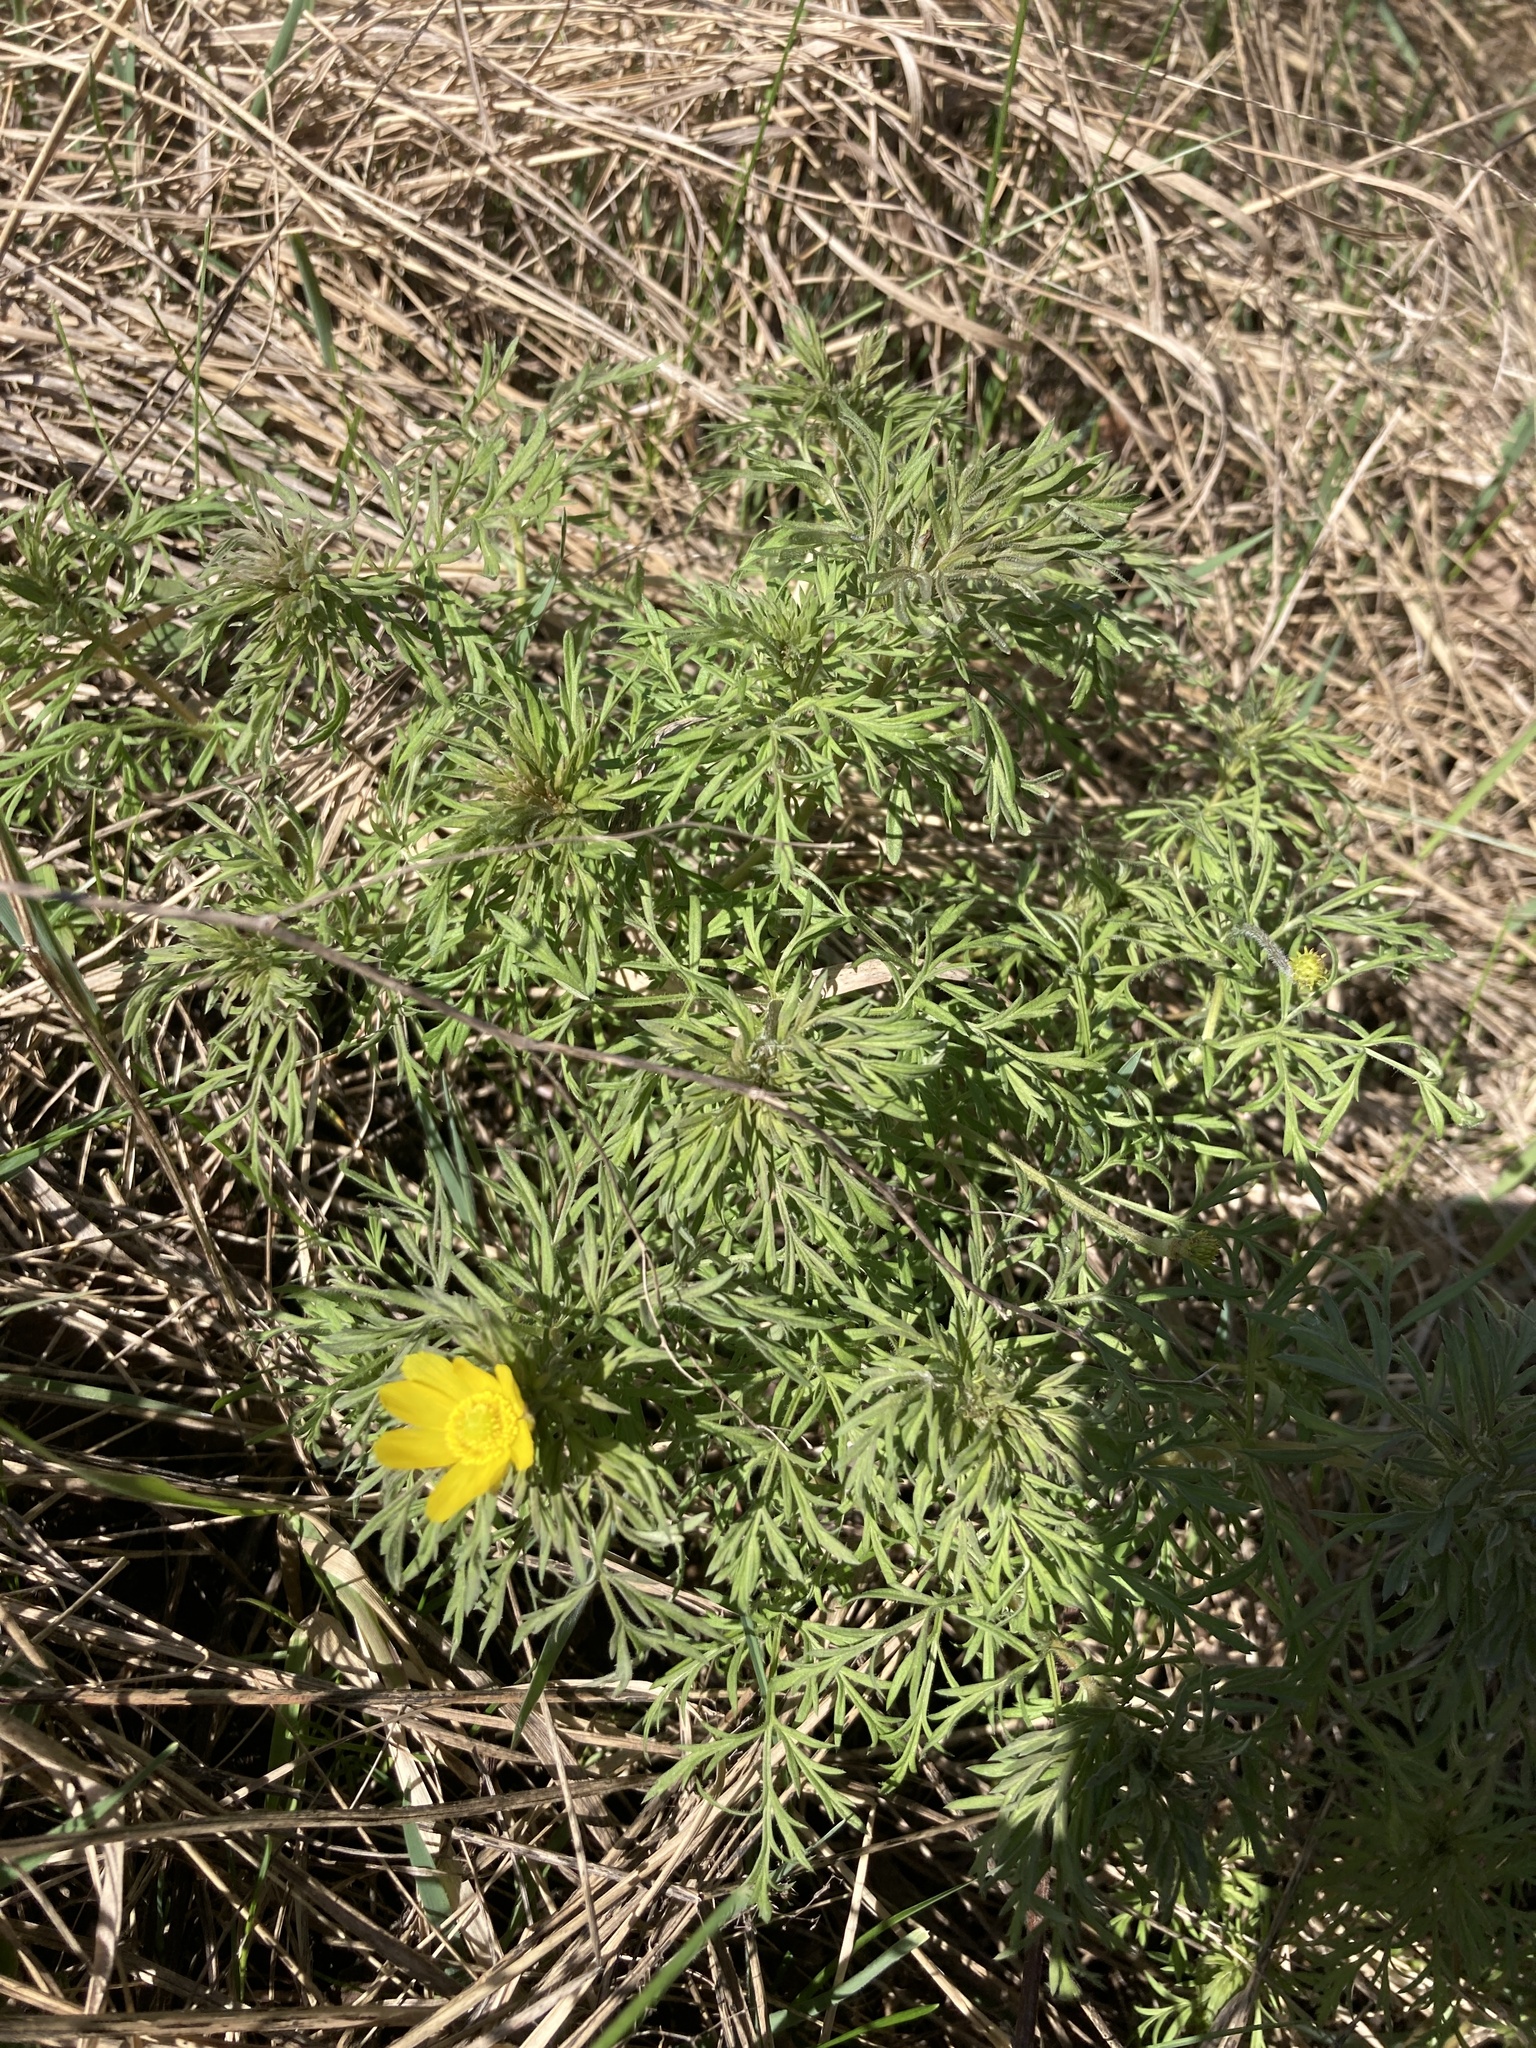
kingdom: Plantae
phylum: Tracheophyta
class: Magnoliopsida
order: Ranunculales
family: Ranunculaceae
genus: Adonis
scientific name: Adonis volgensis
